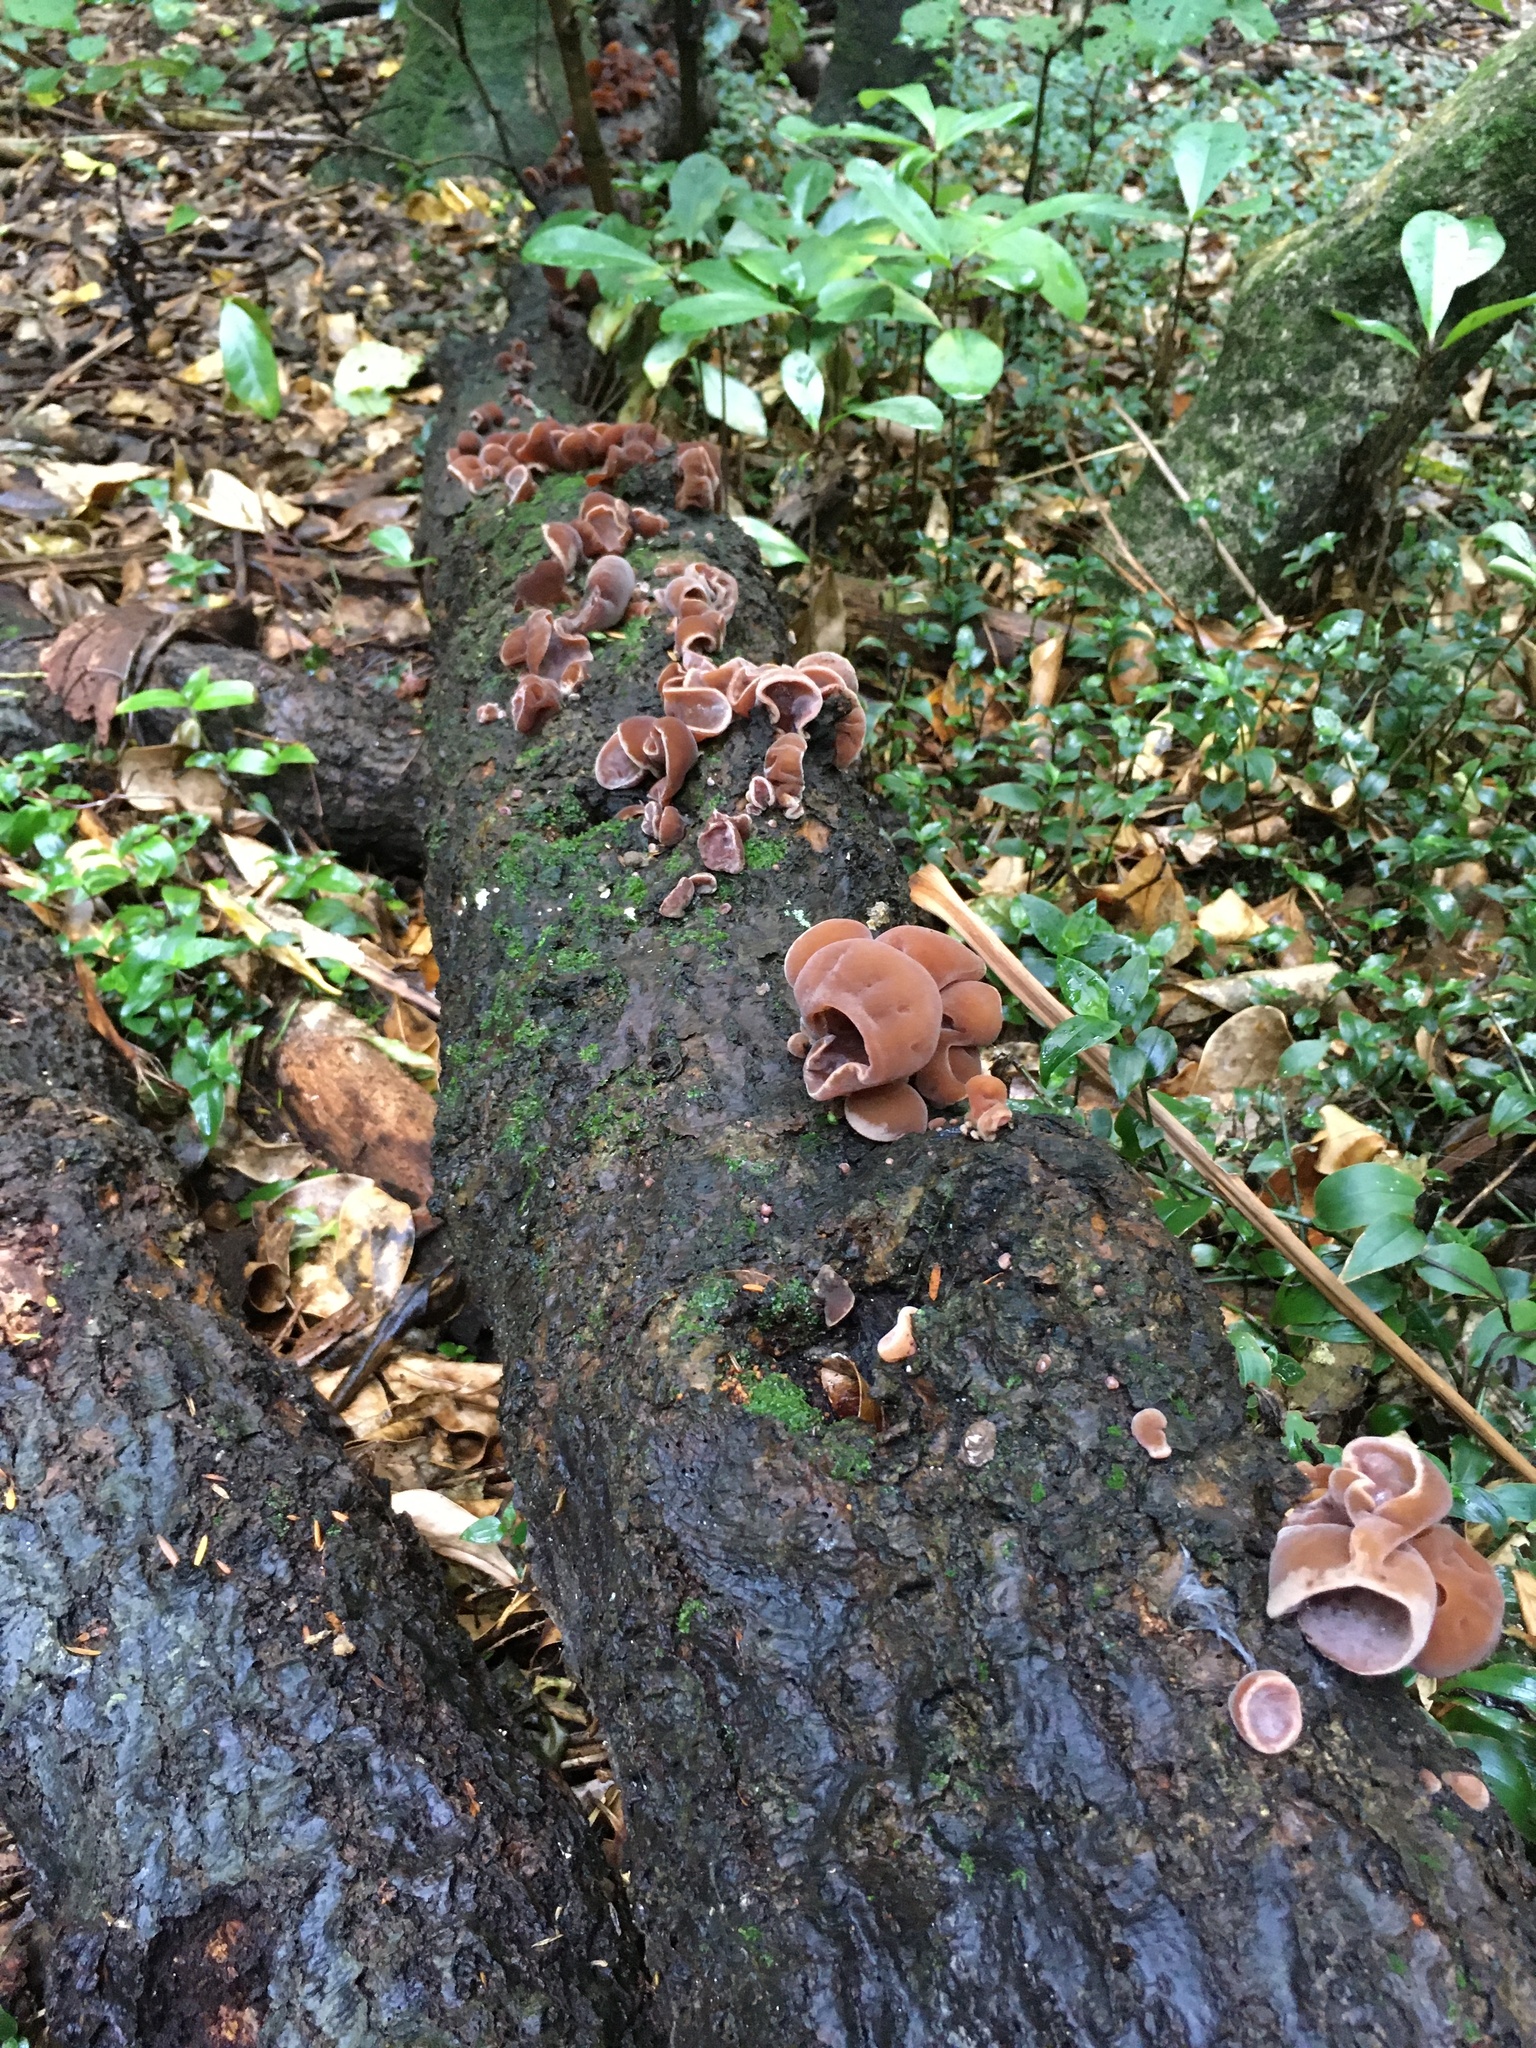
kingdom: Fungi
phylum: Basidiomycota
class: Agaricomycetes
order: Auriculariales
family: Auriculariaceae
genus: Auricularia
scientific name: Auricularia cornea
